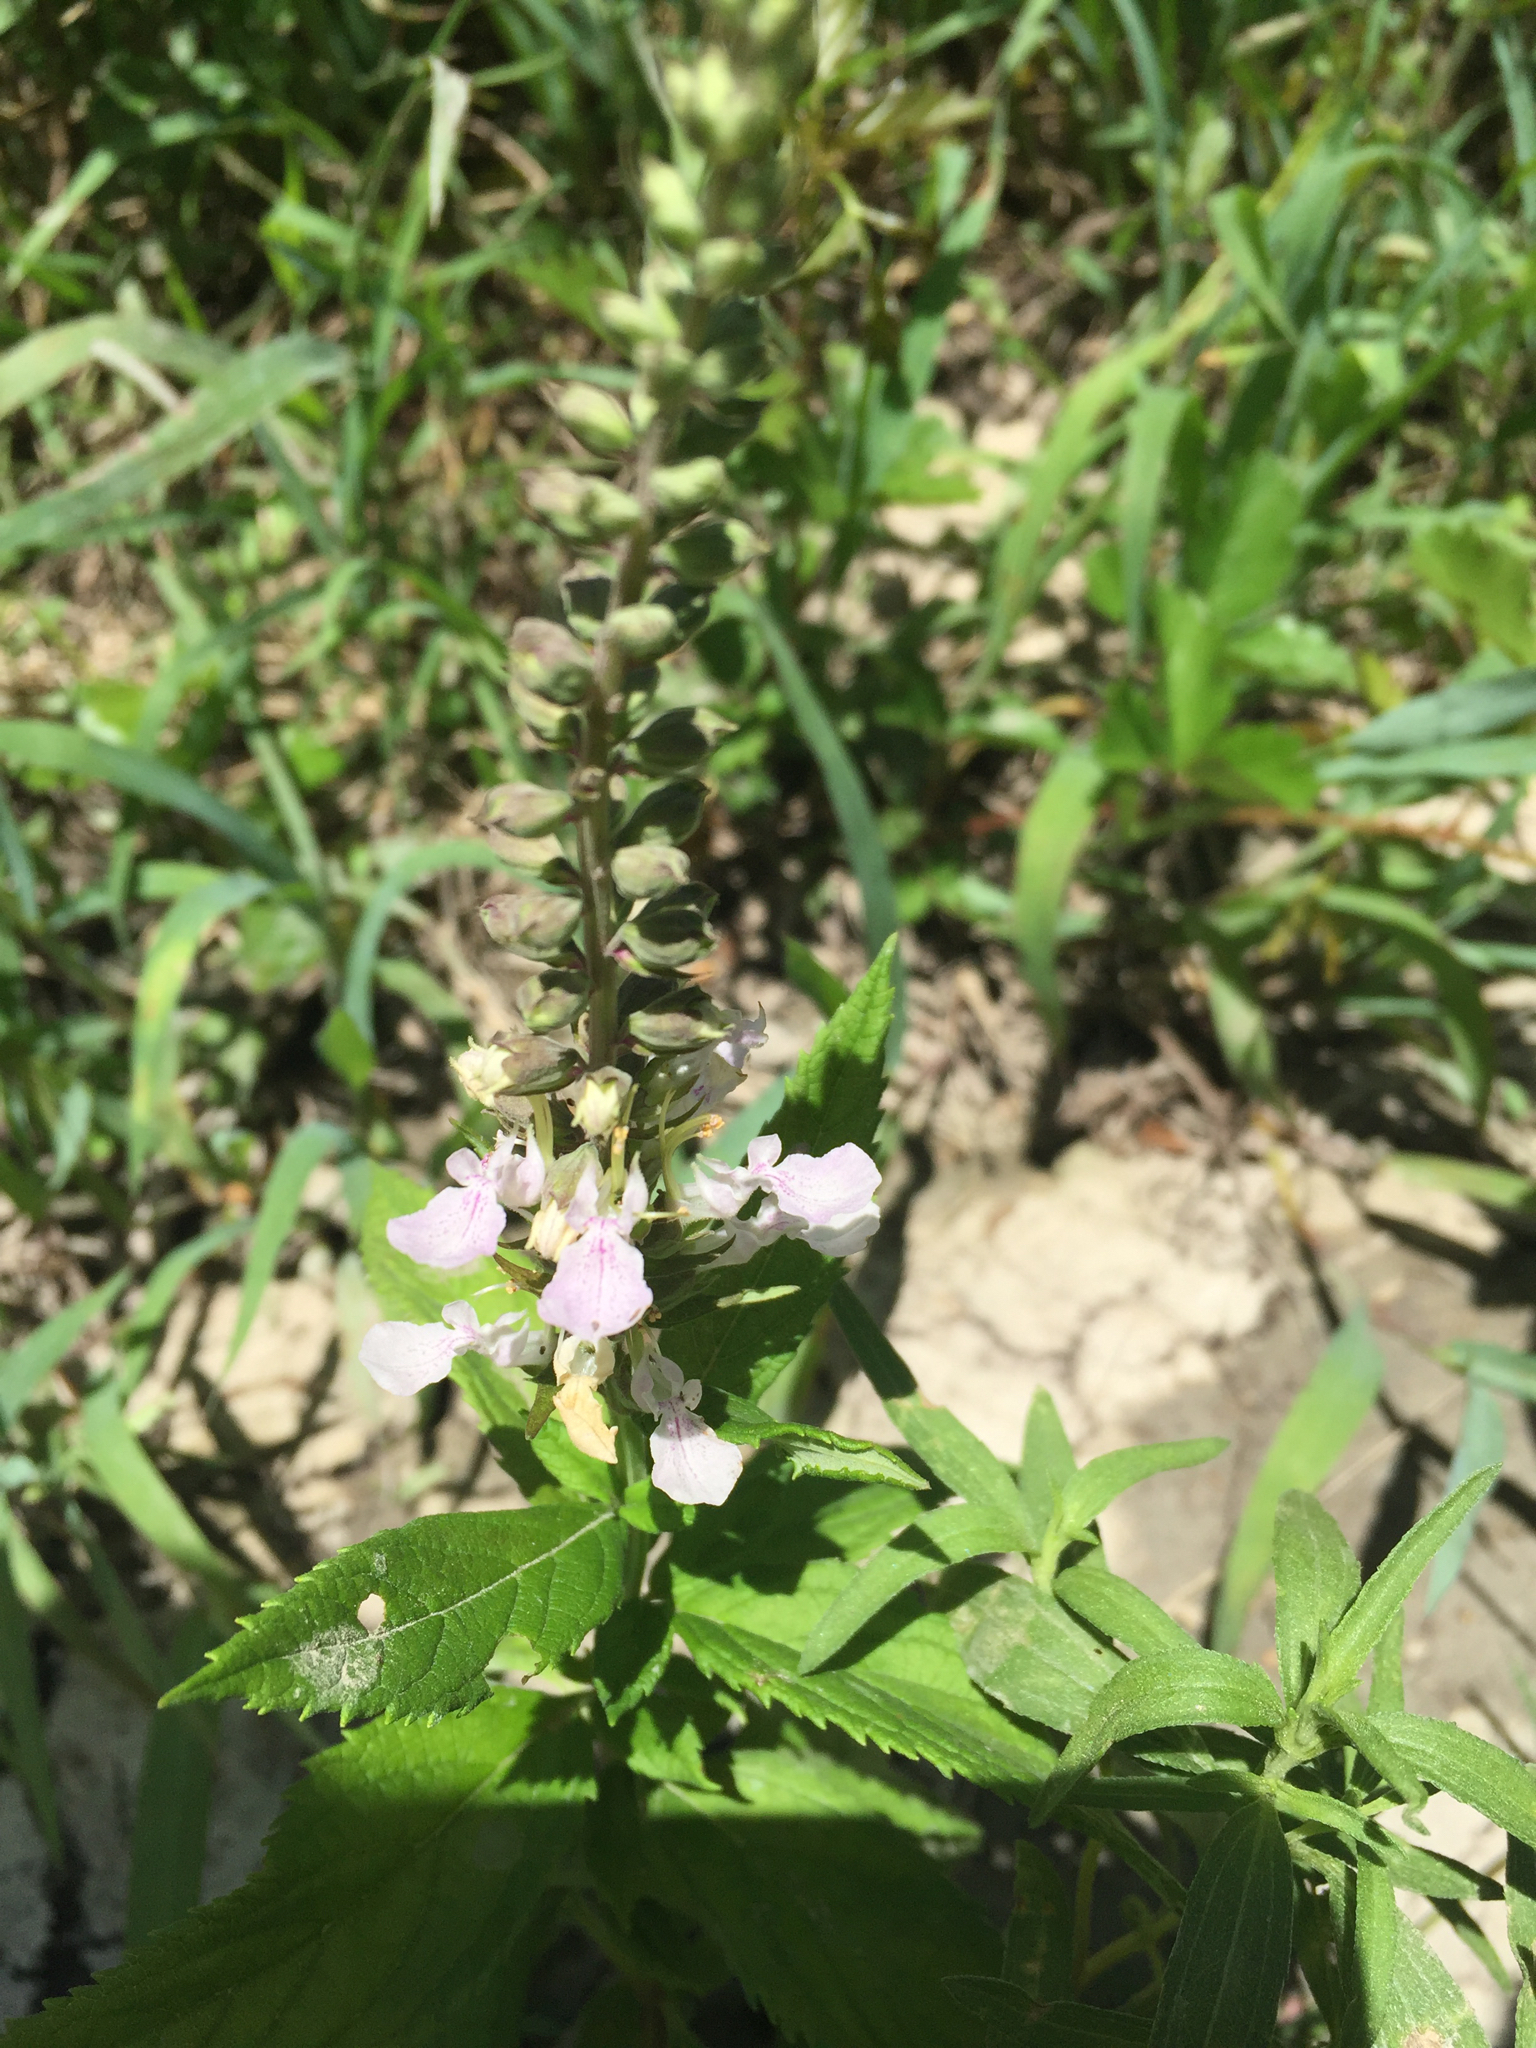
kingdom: Plantae
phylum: Tracheophyta
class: Magnoliopsida
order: Lamiales
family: Lamiaceae
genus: Teucrium
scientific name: Teucrium canadense
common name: American germander
